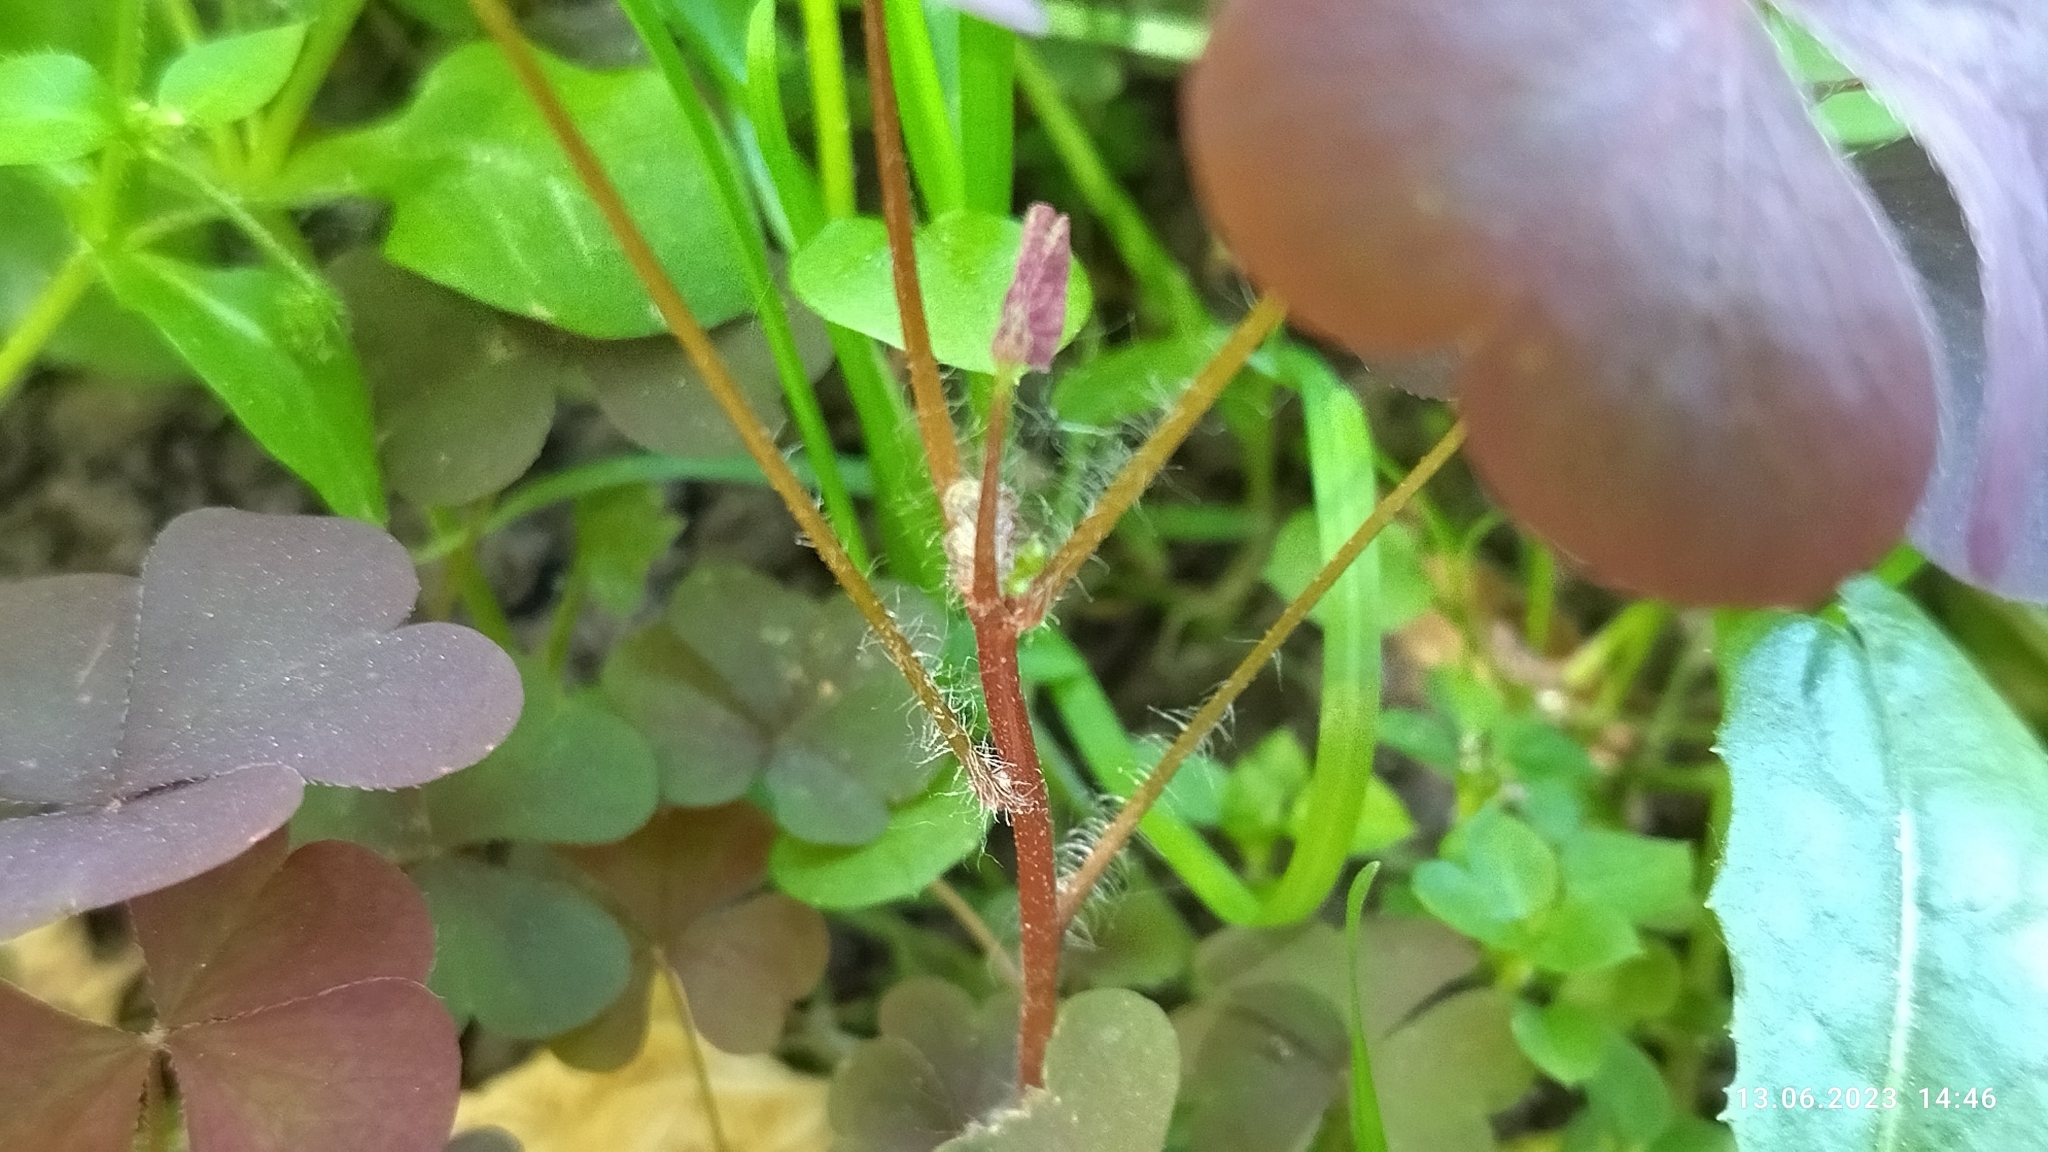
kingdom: Plantae
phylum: Tracheophyta
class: Magnoliopsida
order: Oxalidales
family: Oxalidaceae
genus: Oxalis
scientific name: Oxalis stricta
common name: Upright yellow-sorrel
